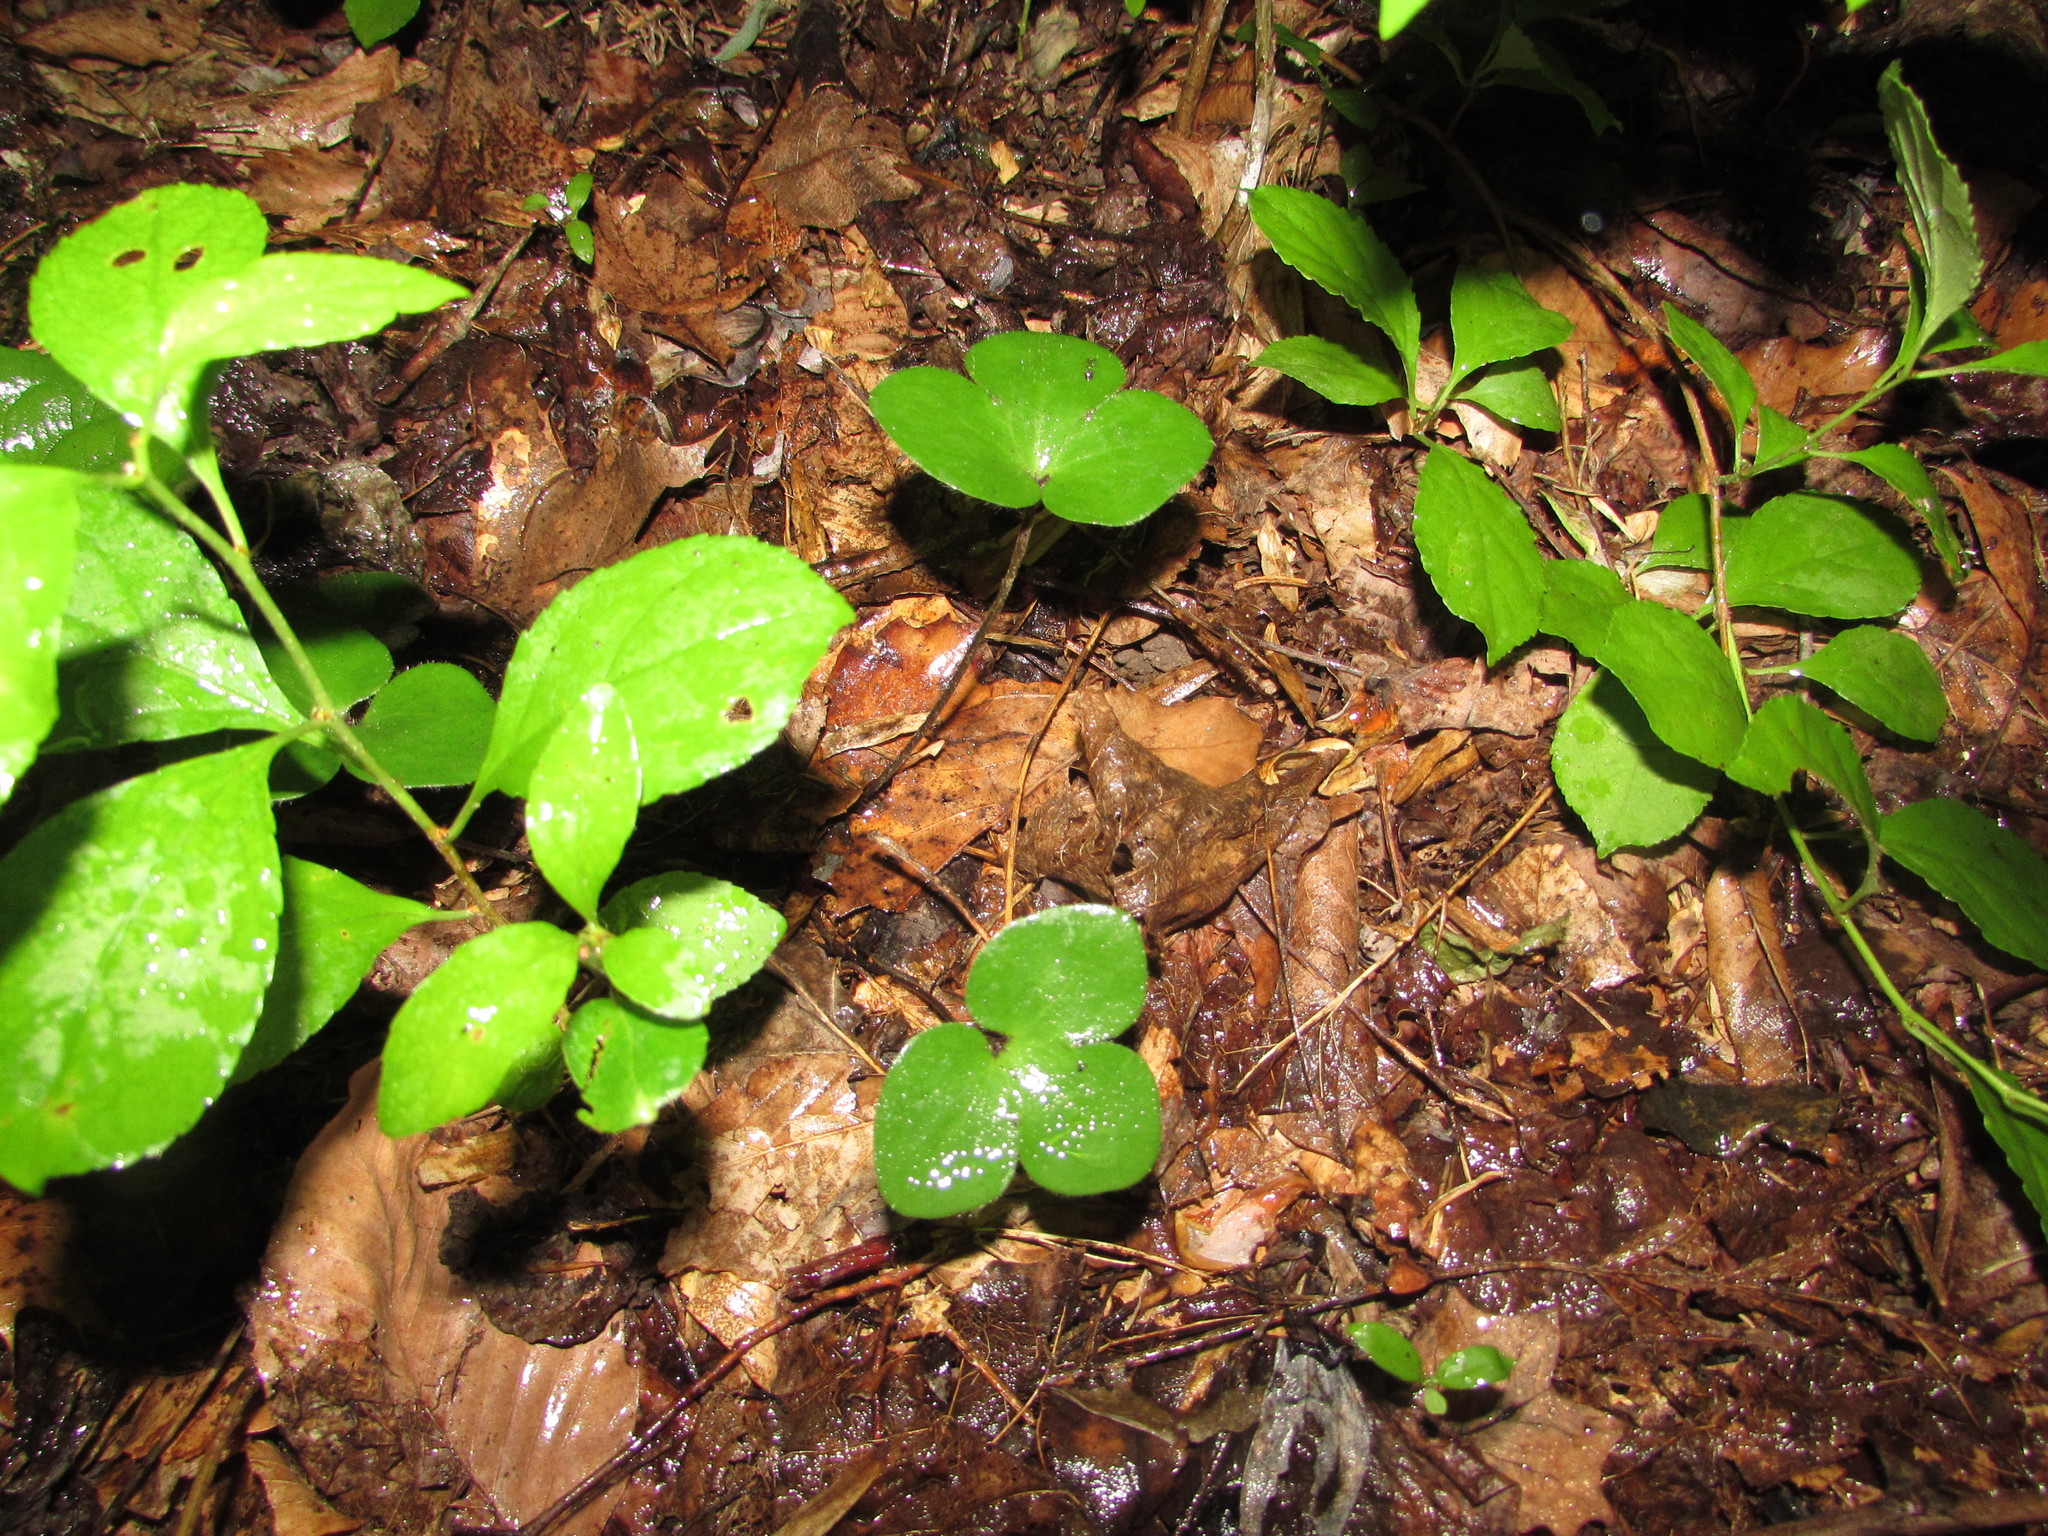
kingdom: Plantae
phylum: Tracheophyta
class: Magnoliopsida
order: Ranunculales
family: Ranunculaceae
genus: Hepatica
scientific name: Hepatica americana
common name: American hepatica
